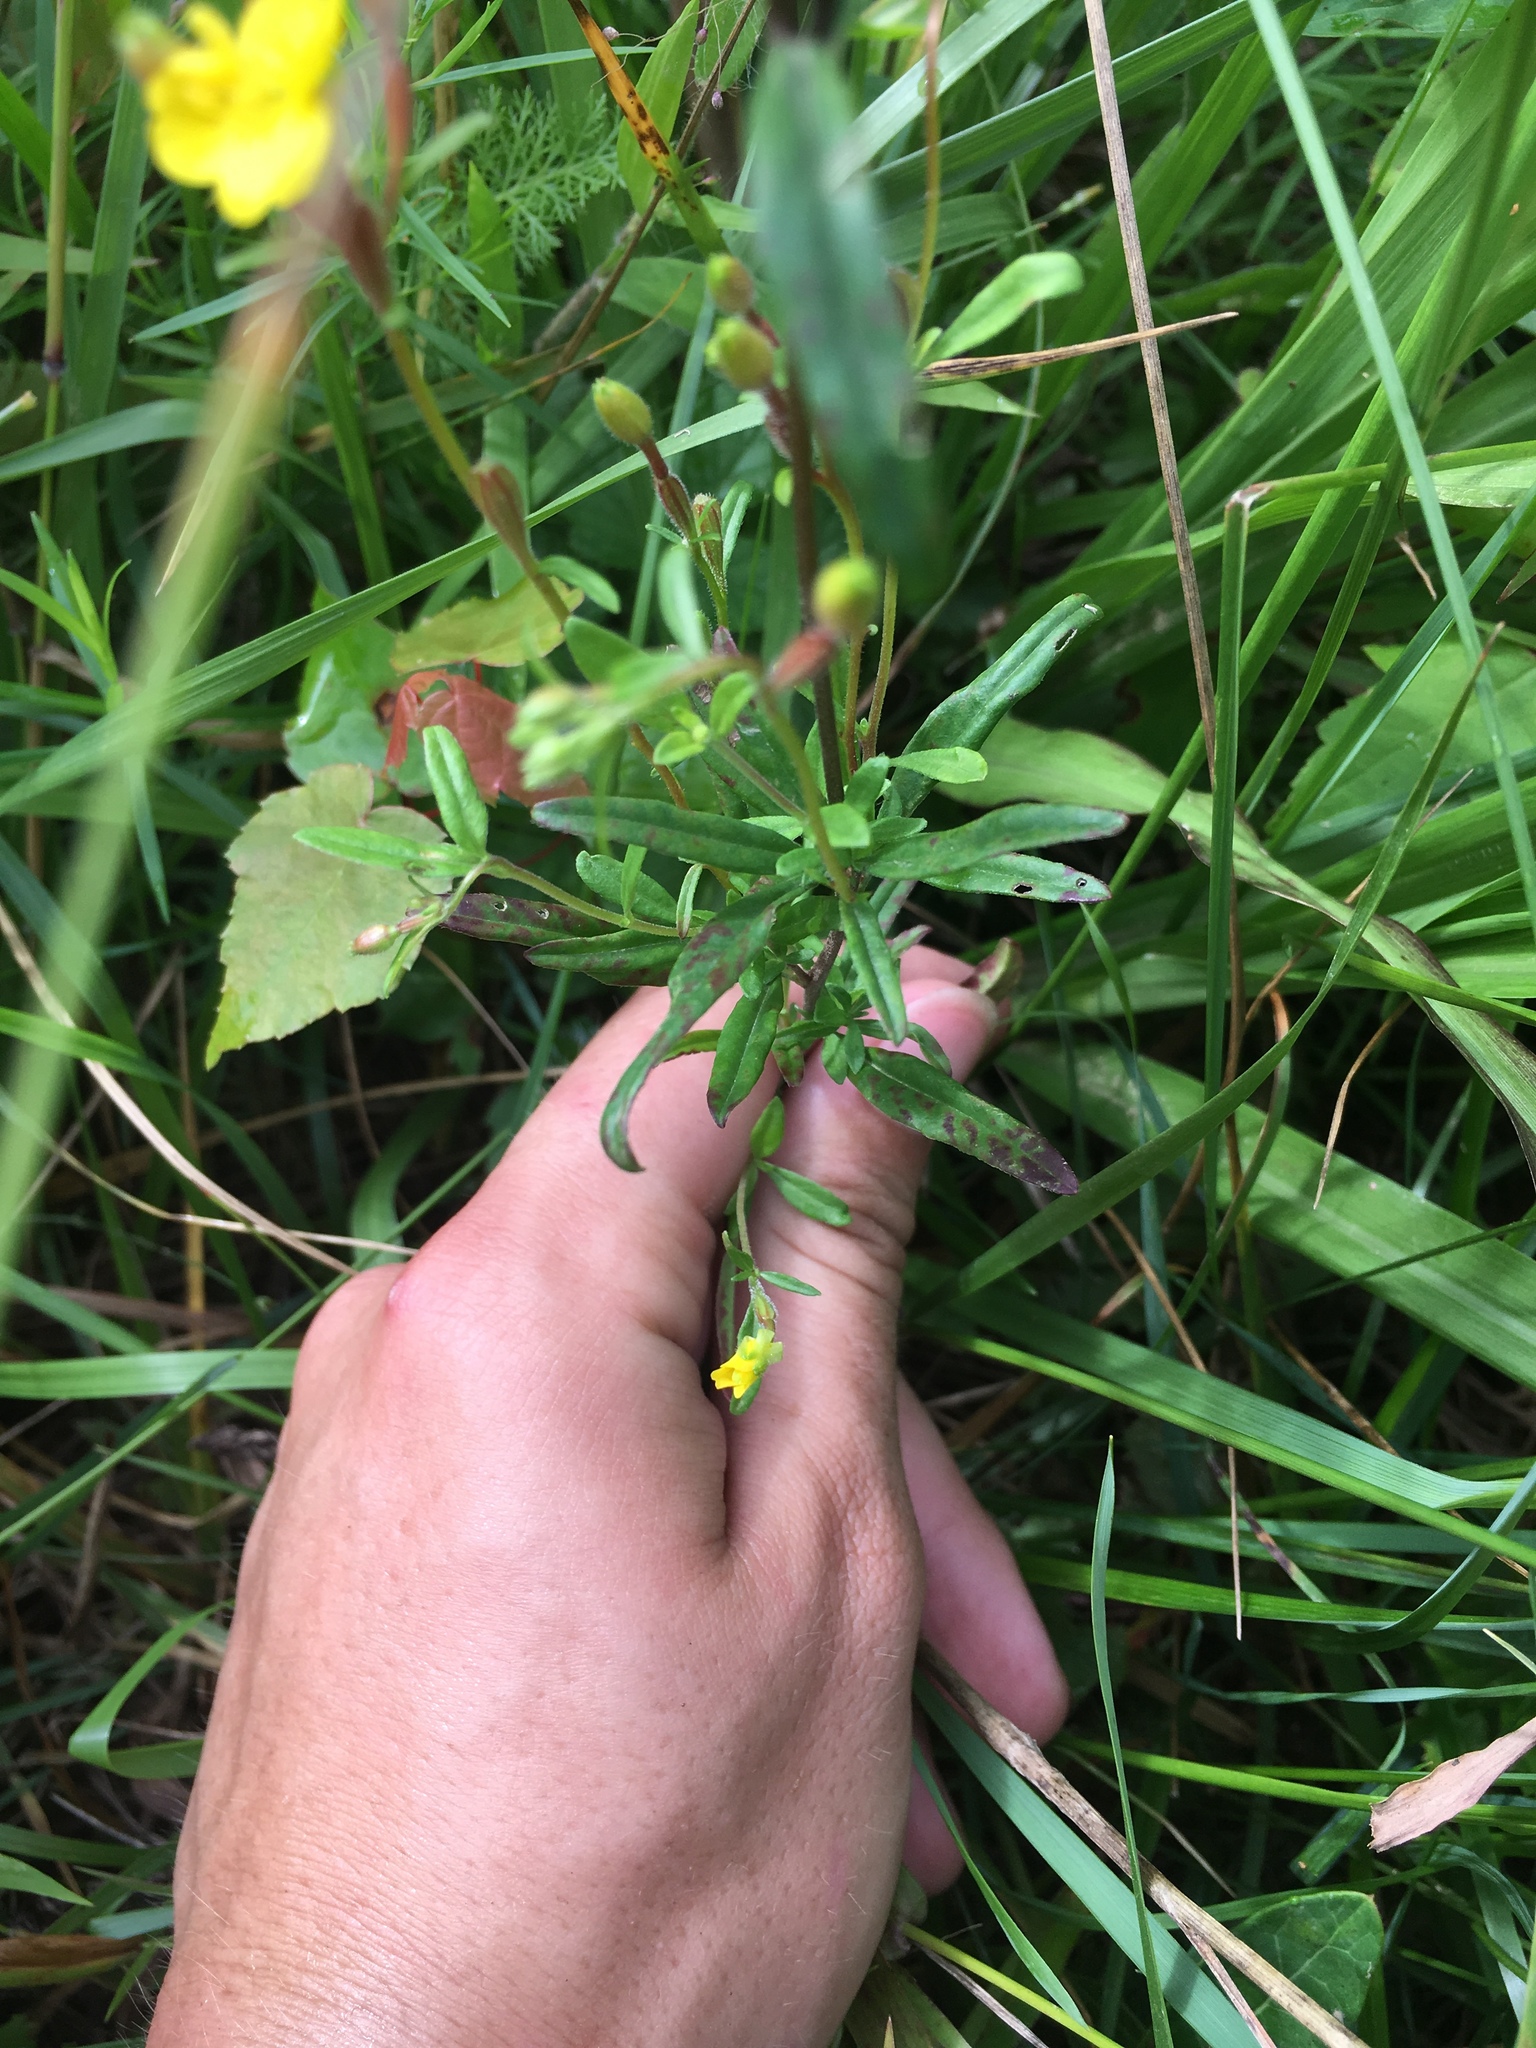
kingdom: Plantae
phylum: Tracheophyta
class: Magnoliopsida
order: Myrtales
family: Onagraceae
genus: Oenothera
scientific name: Oenothera perennis
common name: Small sundrops
